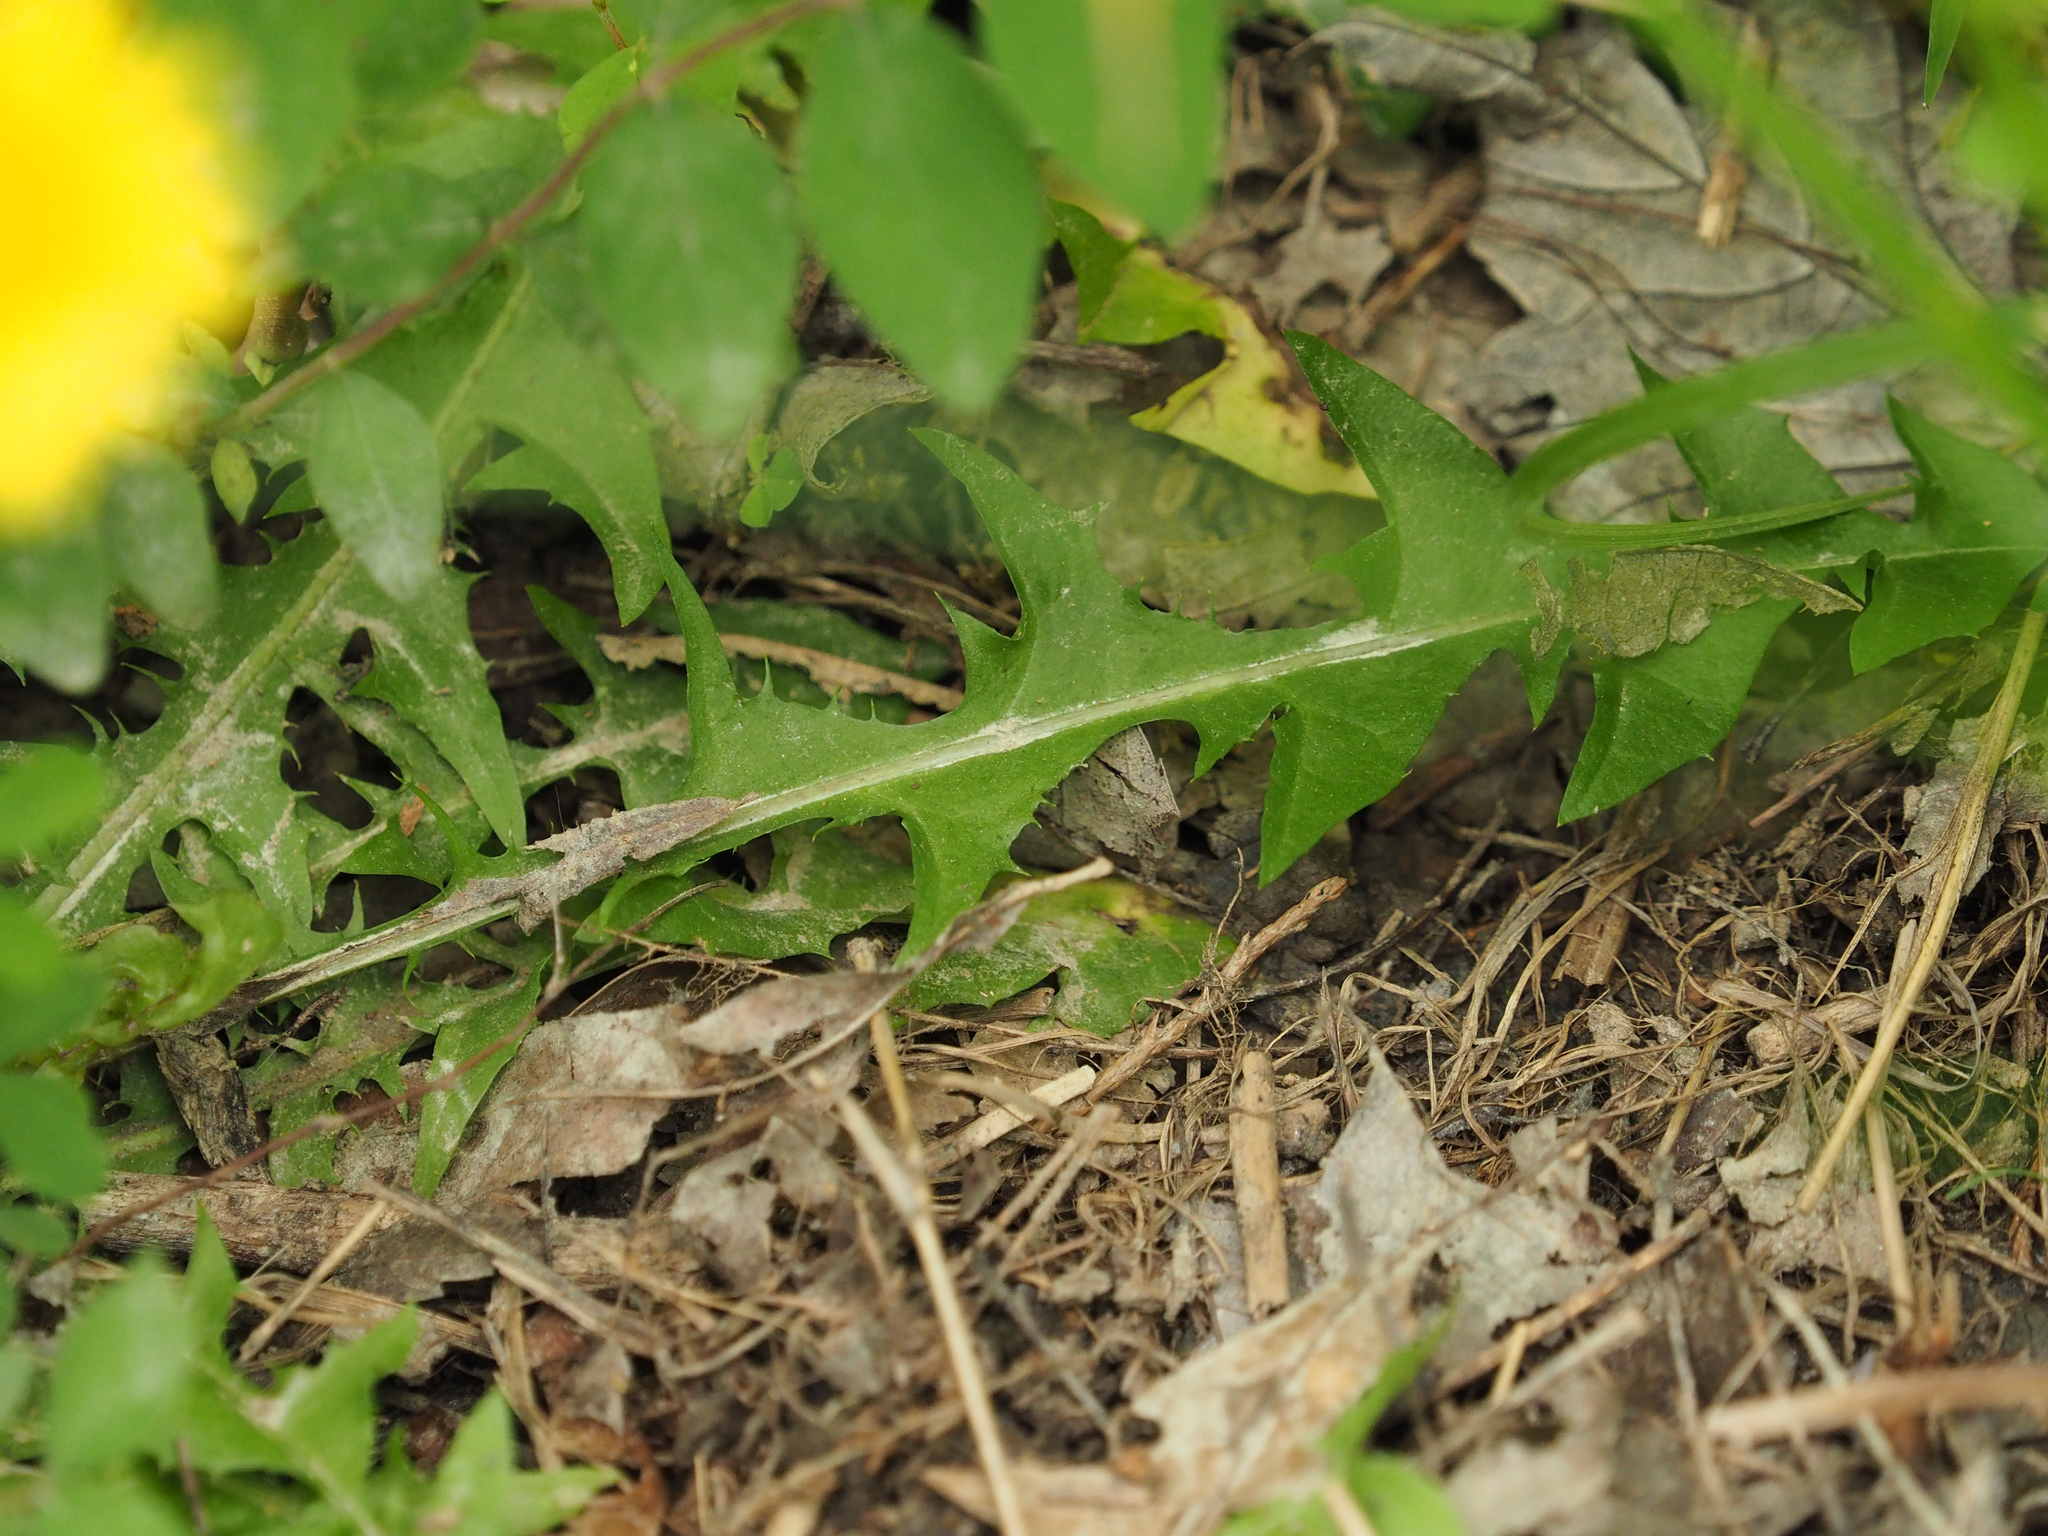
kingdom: Plantae
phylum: Tracheophyta
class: Magnoliopsida
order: Asterales
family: Asteraceae
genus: Taraxacum
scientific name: Taraxacum officinale
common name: Common dandelion
